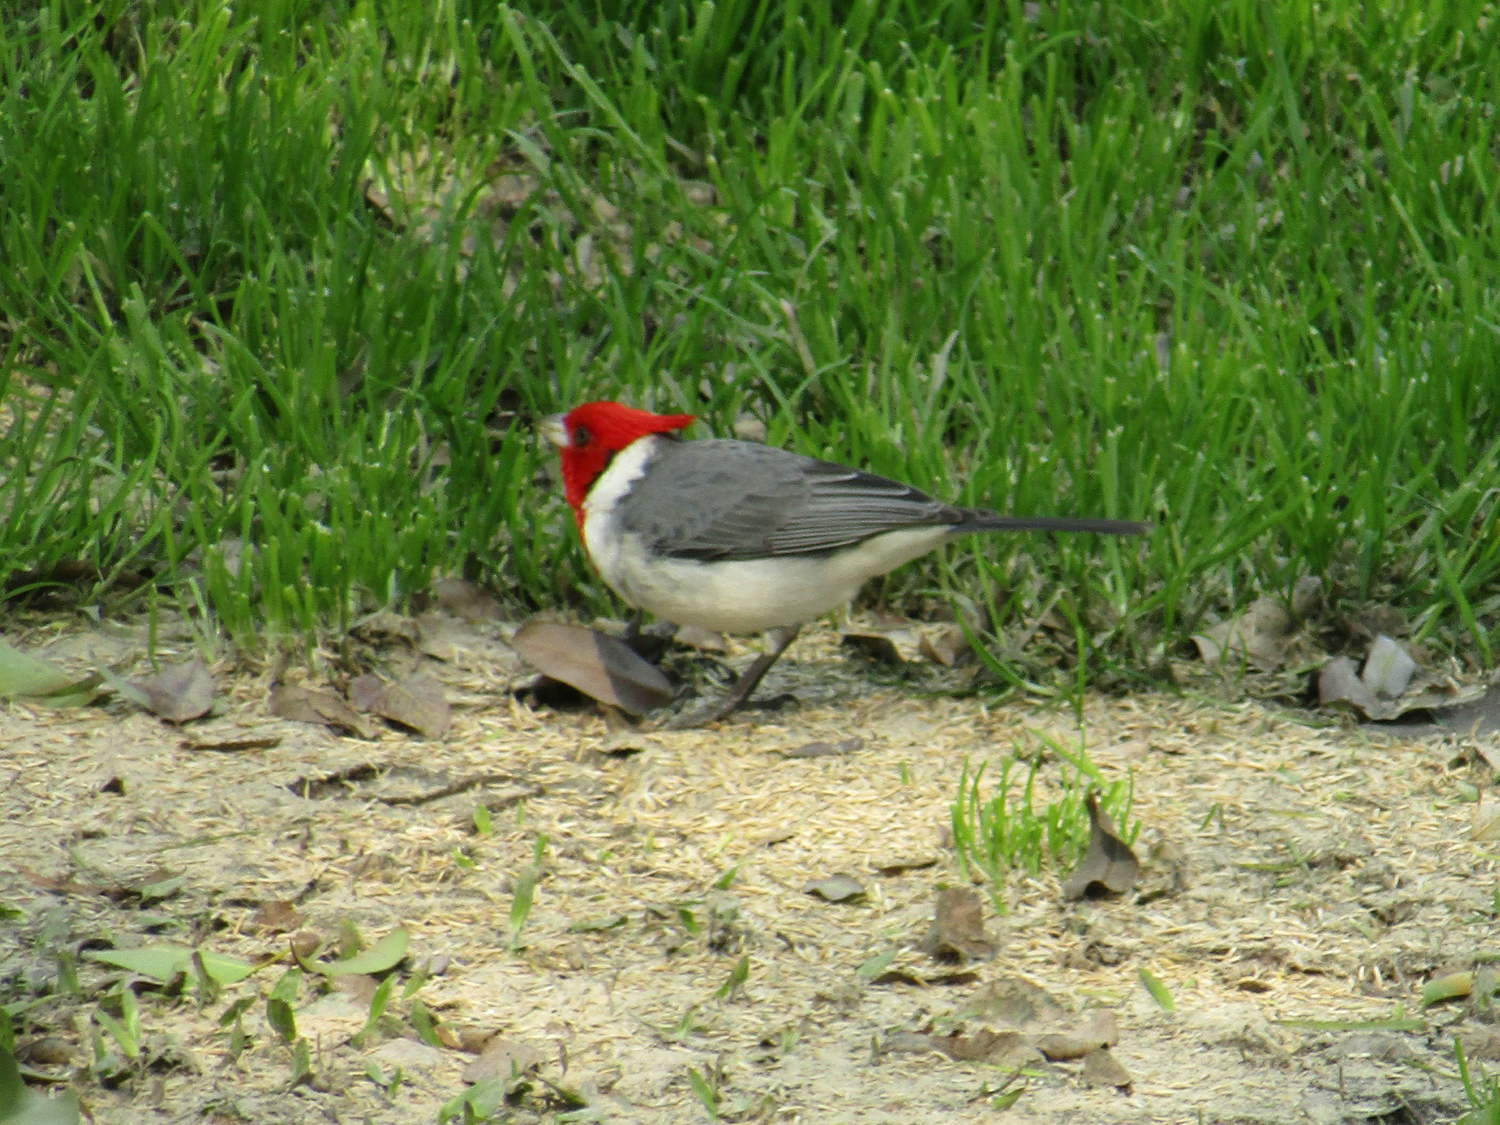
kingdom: Animalia
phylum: Chordata
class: Aves
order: Passeriformes
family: Thraupidae
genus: Paroaria
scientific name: Paroaria coronata
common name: Red-crested cardinal
